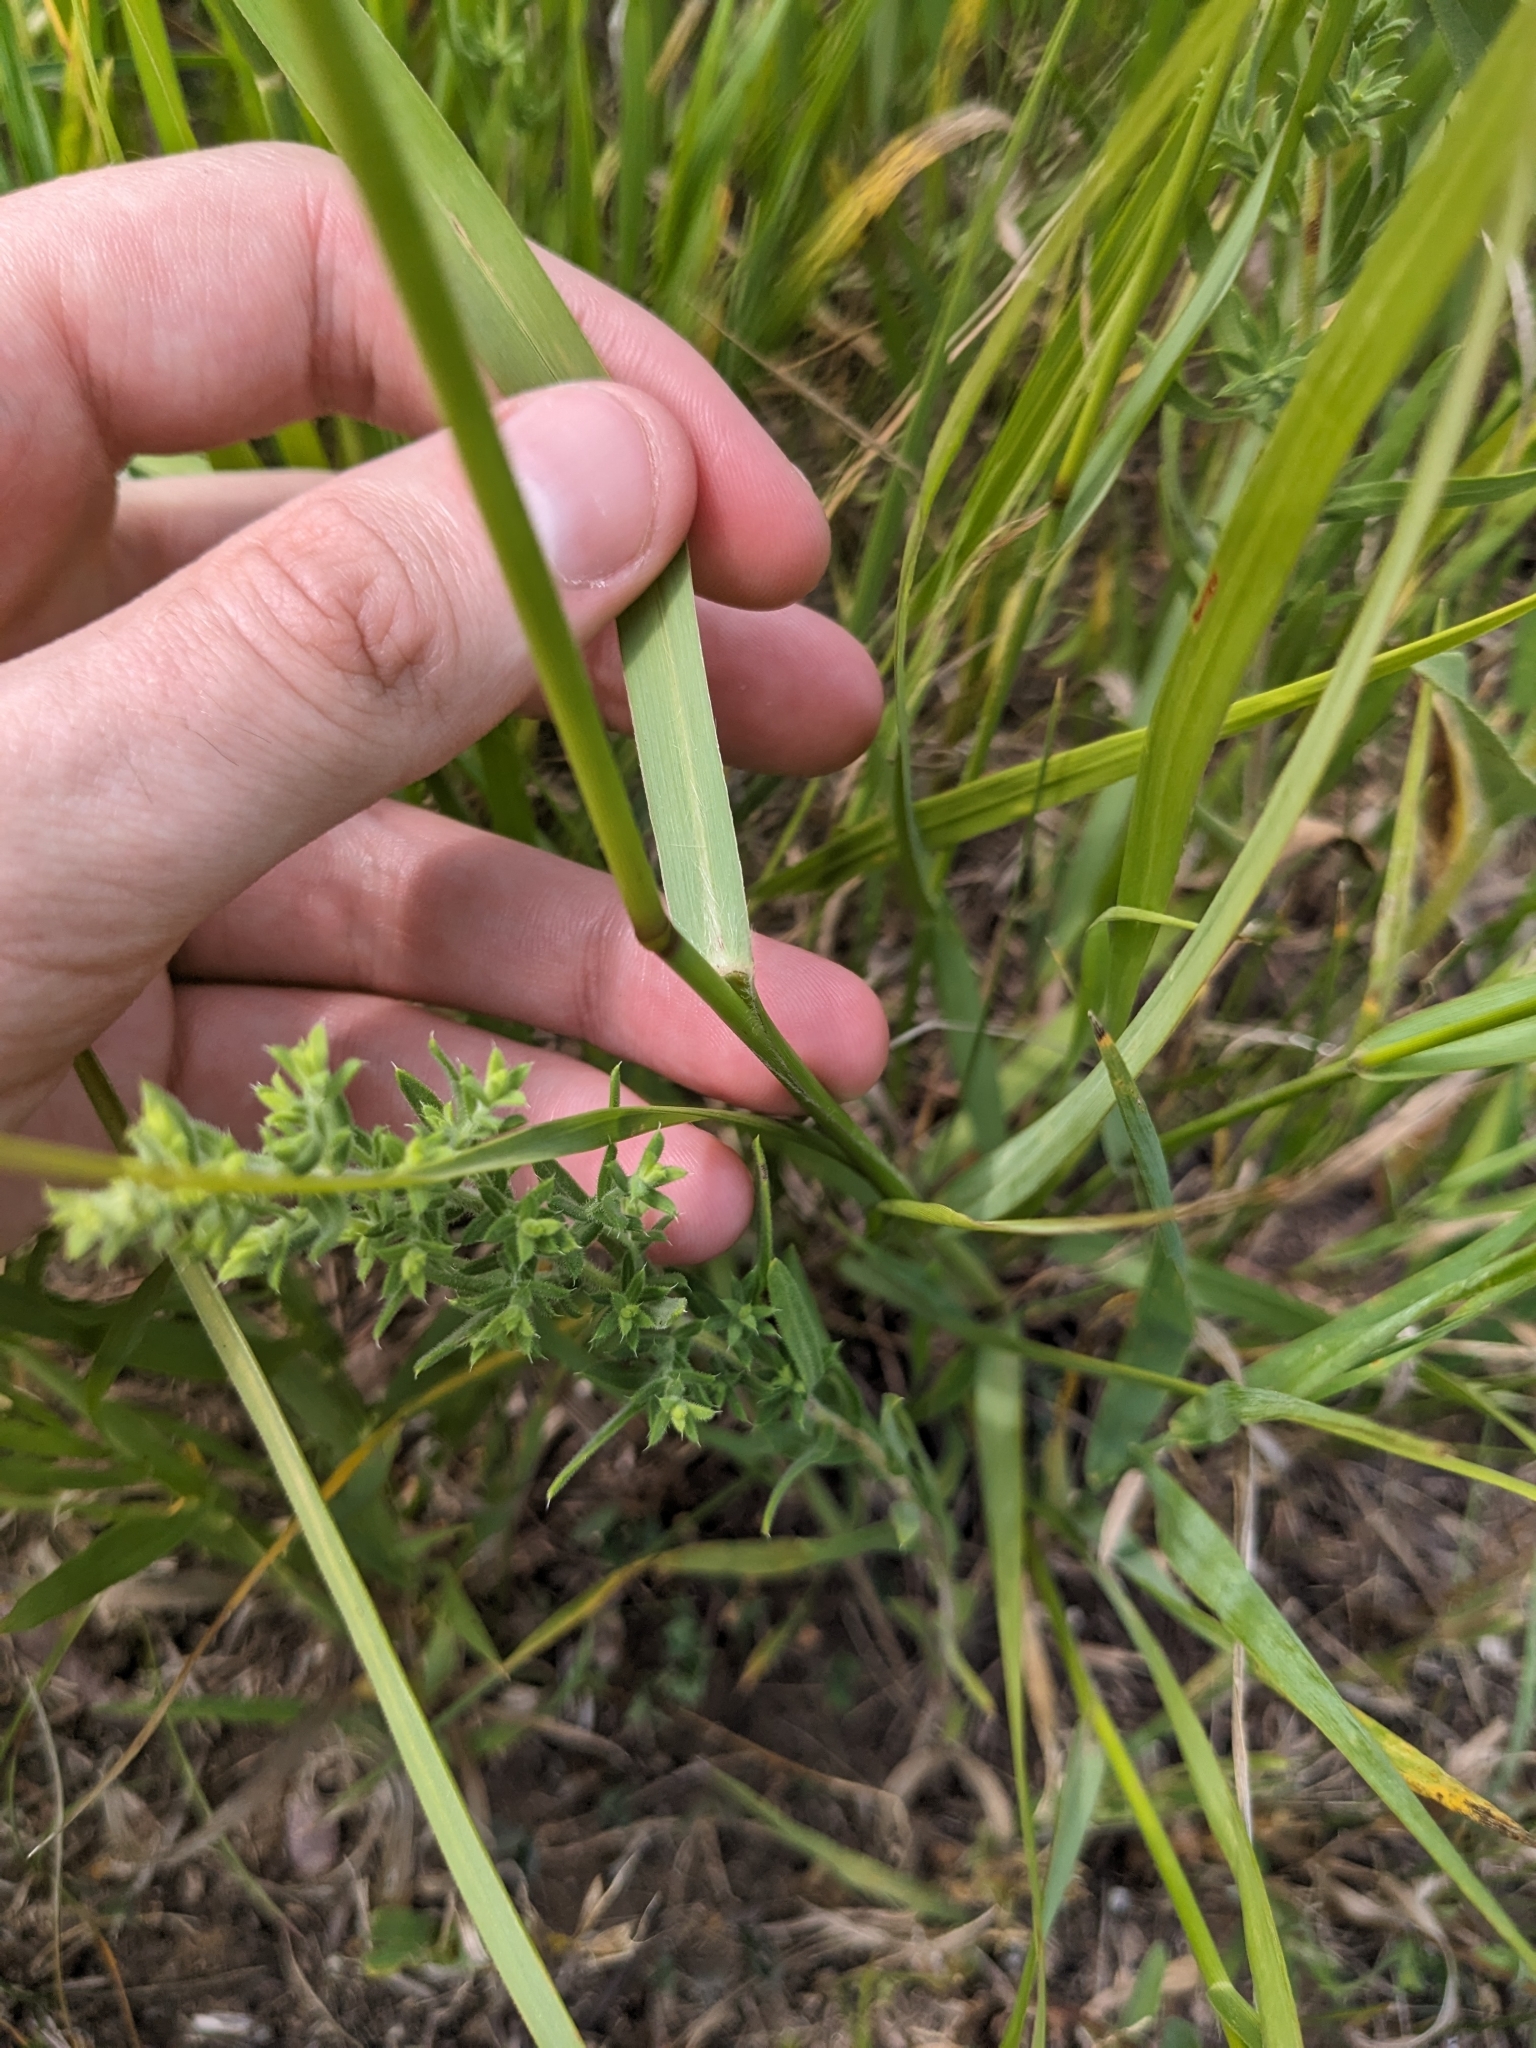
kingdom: Plantae
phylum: Tracheophyta
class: Liliopsida
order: Poales
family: Poaceae
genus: Panicum
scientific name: Panicum virgatum
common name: Switchgrass
